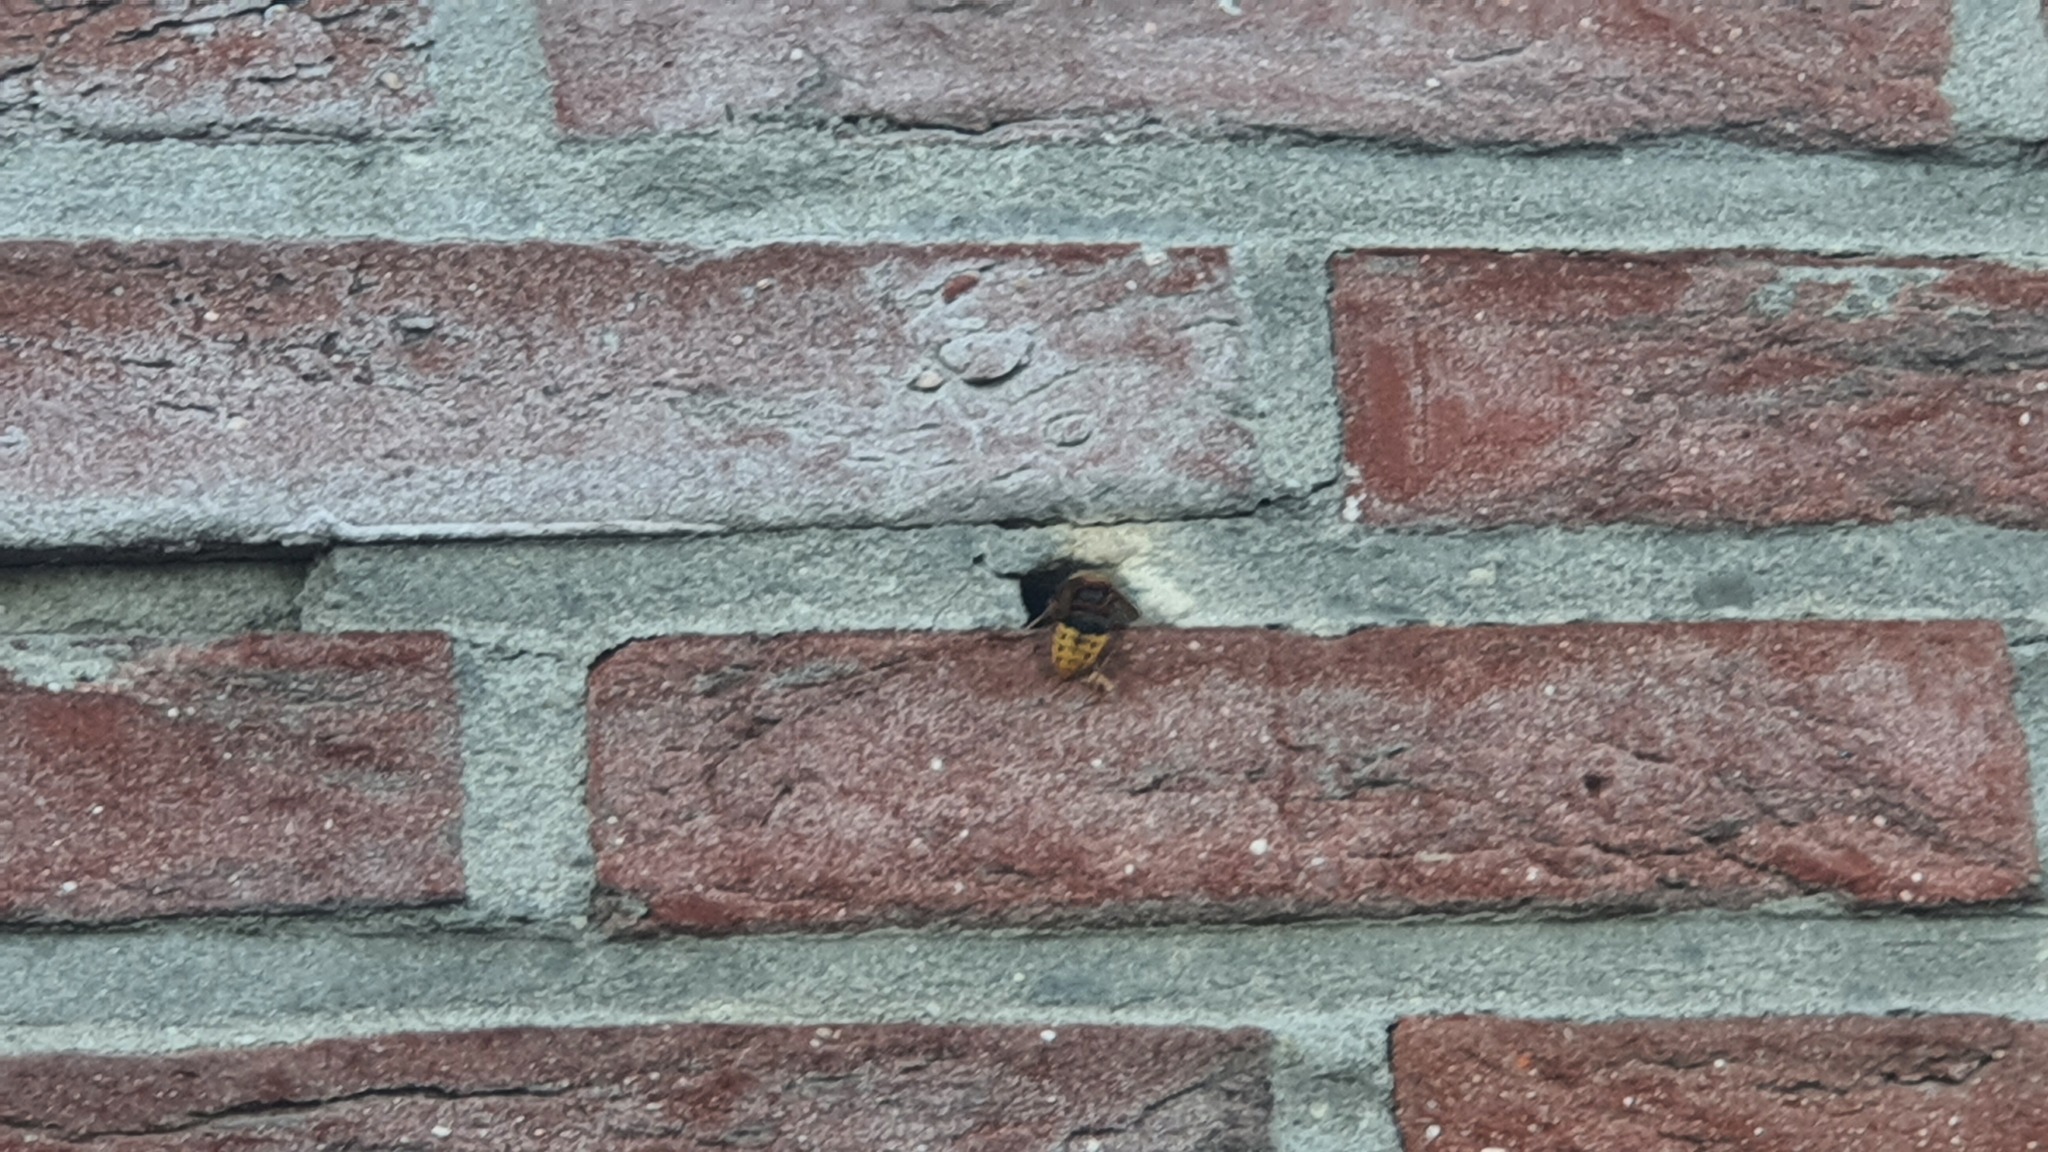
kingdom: Animalia
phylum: Arthropoda
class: Insecta
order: Hymenoptera
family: Vespidae
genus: Vespa
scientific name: Vespa crabro
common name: Hornet
